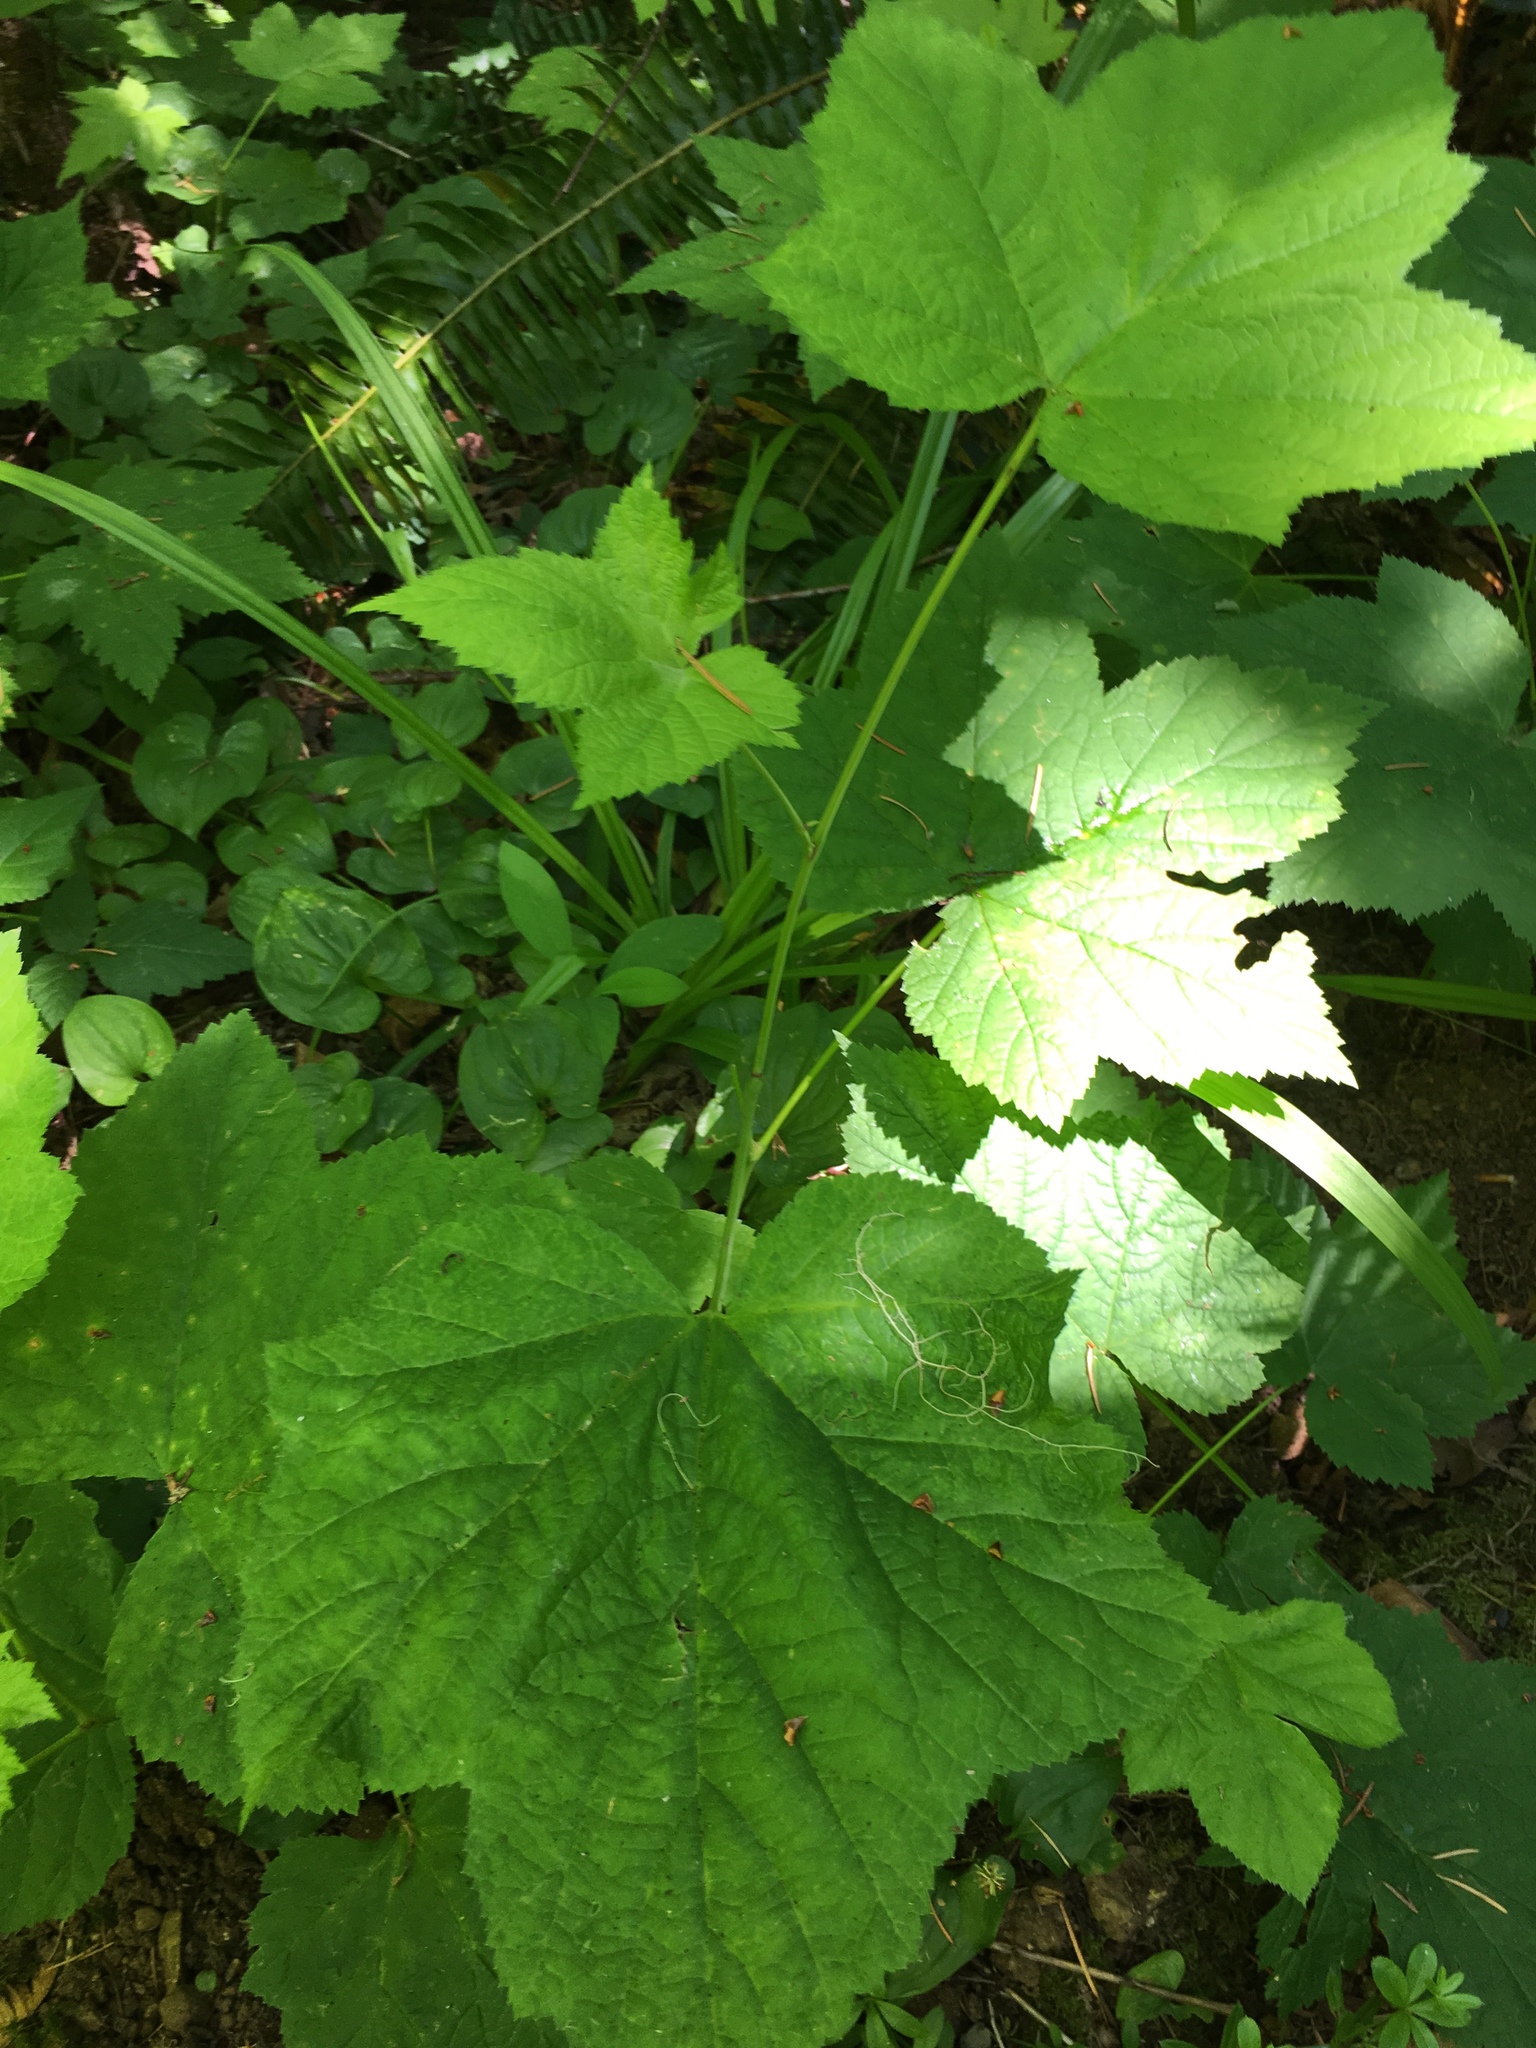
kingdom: Plantae
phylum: Tracheophyta
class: Magnoliopsida
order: Rosales
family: Rosaceae
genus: Rubus
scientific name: Rubus parviflorus
